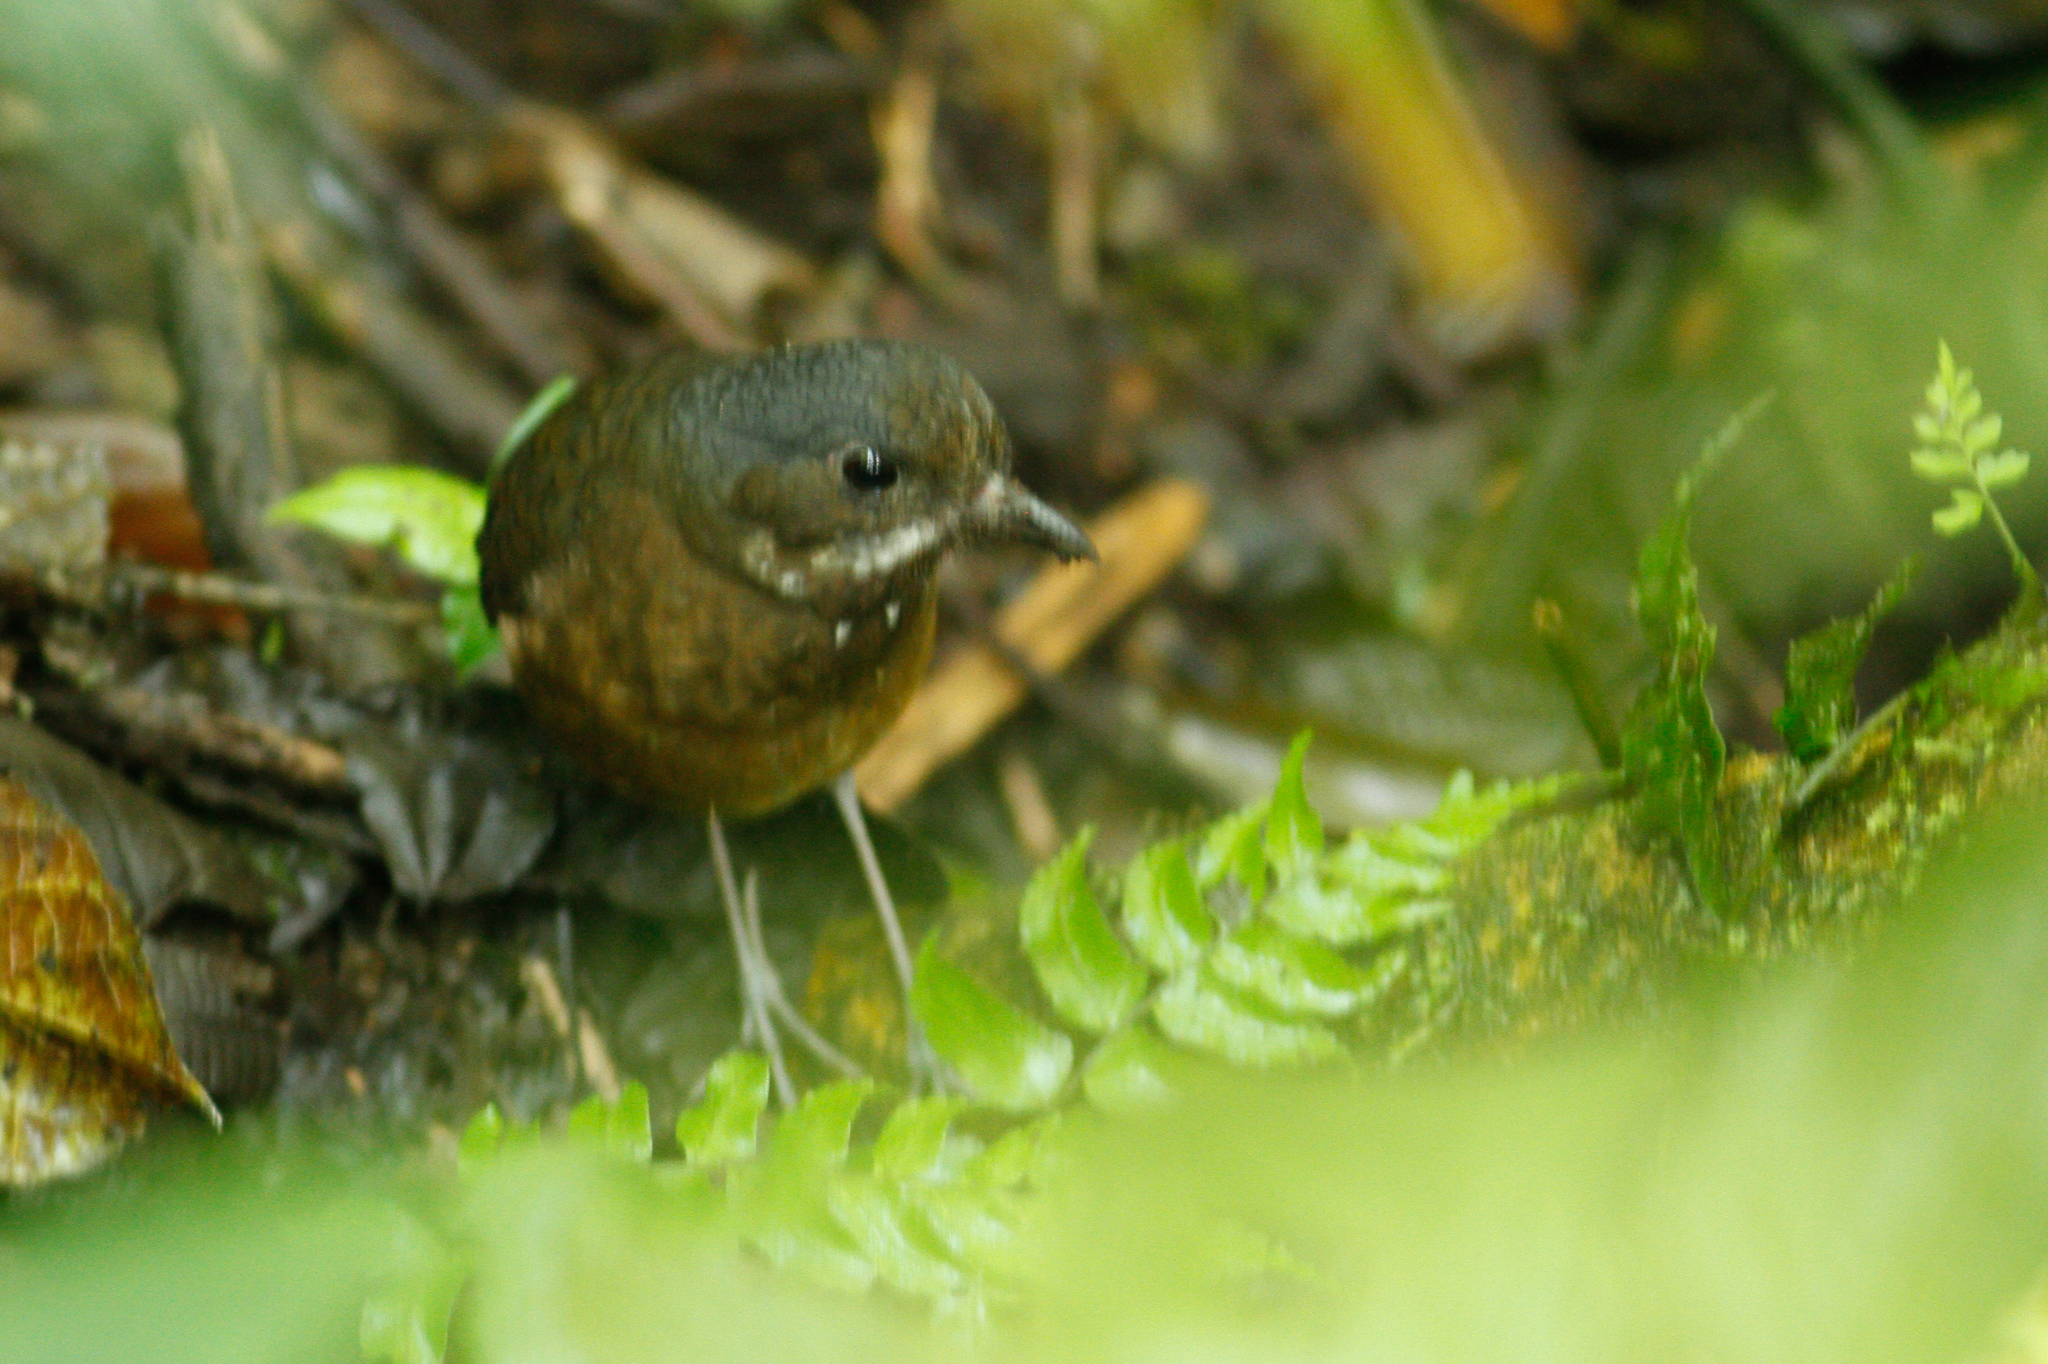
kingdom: Animalia
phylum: Chordata
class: Aves
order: Passeriformes
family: Grallariidae
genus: Grallaria
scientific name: Grallaria alleni
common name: Moustached antpitta
